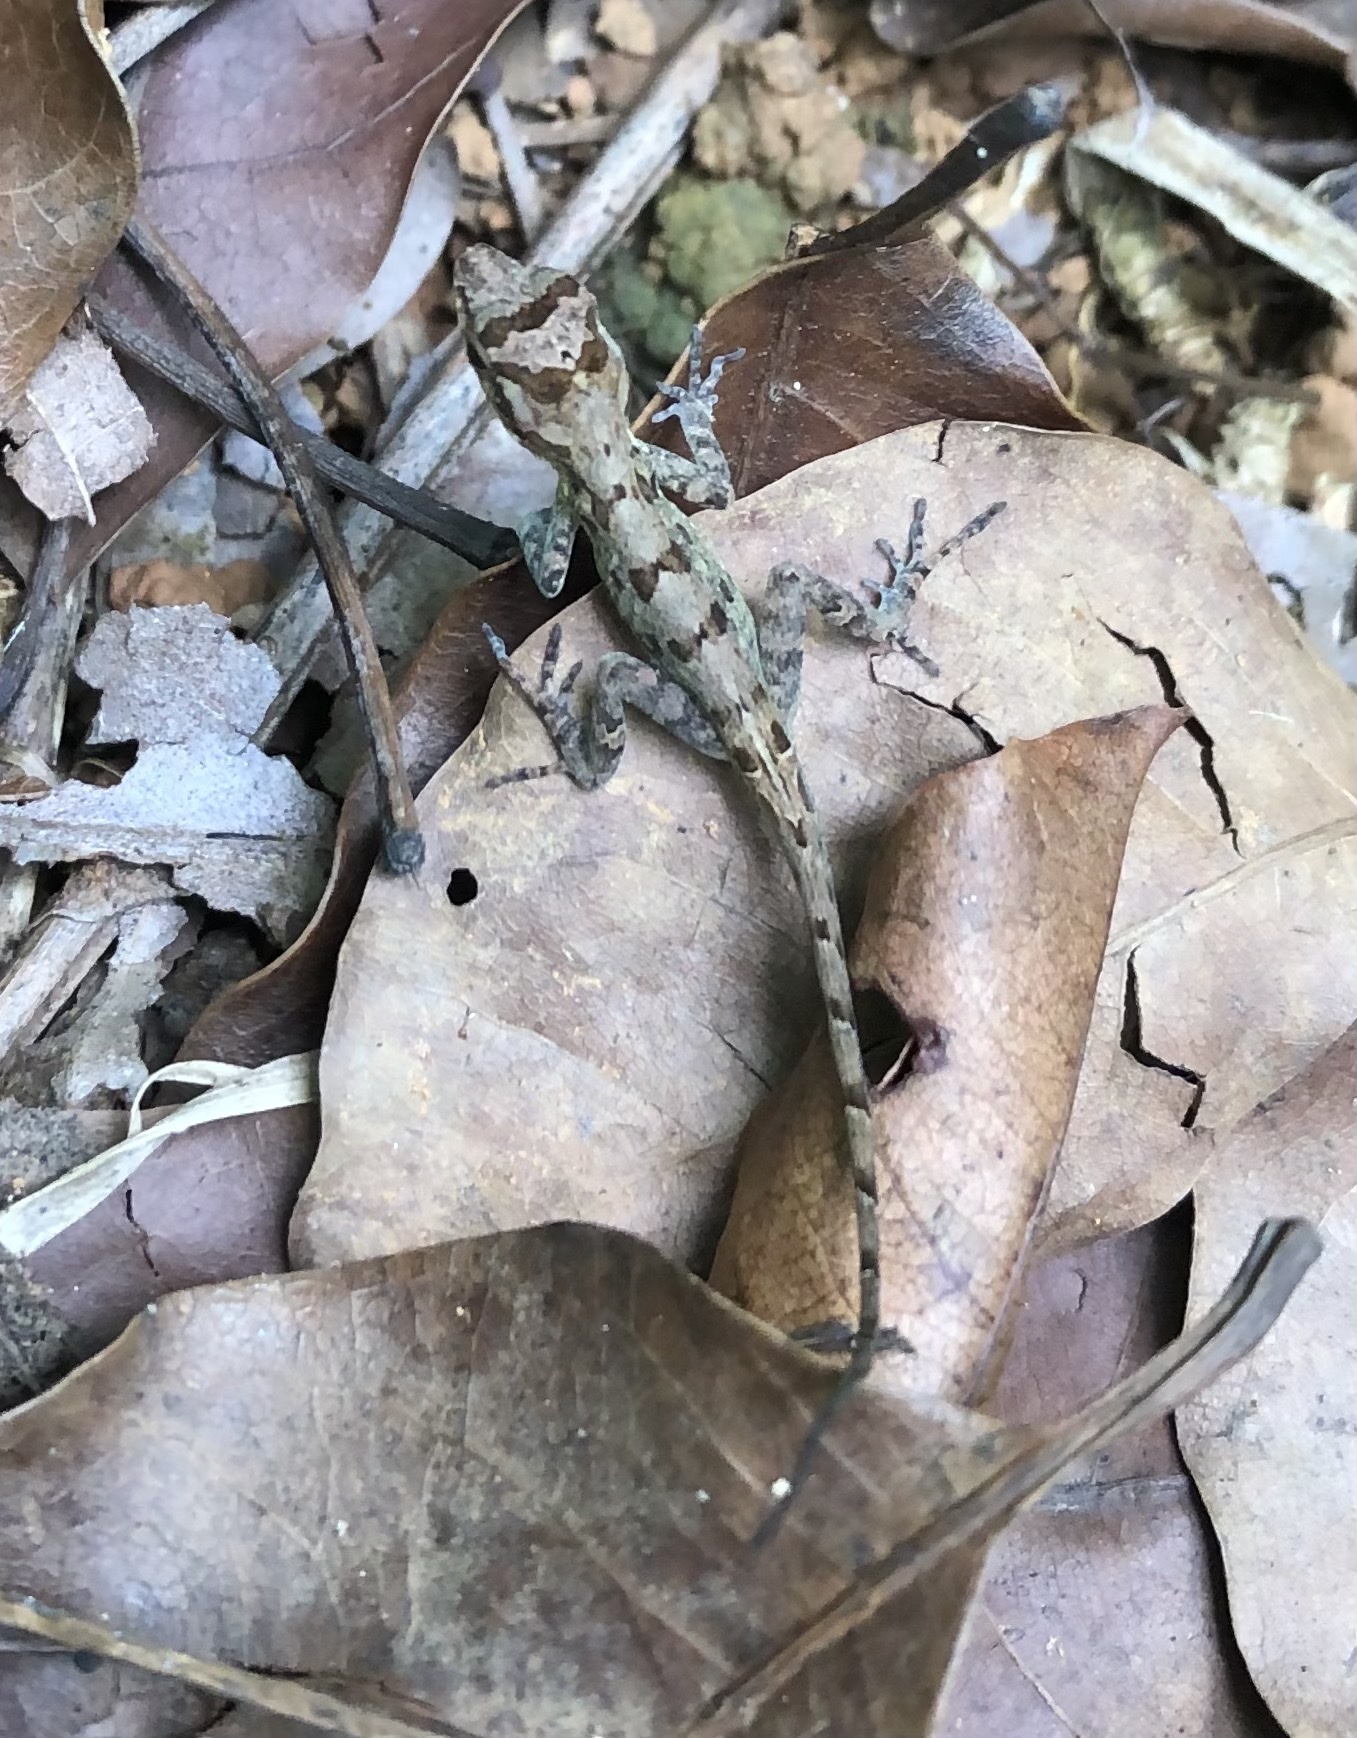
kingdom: Animalia
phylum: Chordata
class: Squamata
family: Dactyloidae
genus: Anolis
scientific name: Anolis cristatellus
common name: Crested anole
